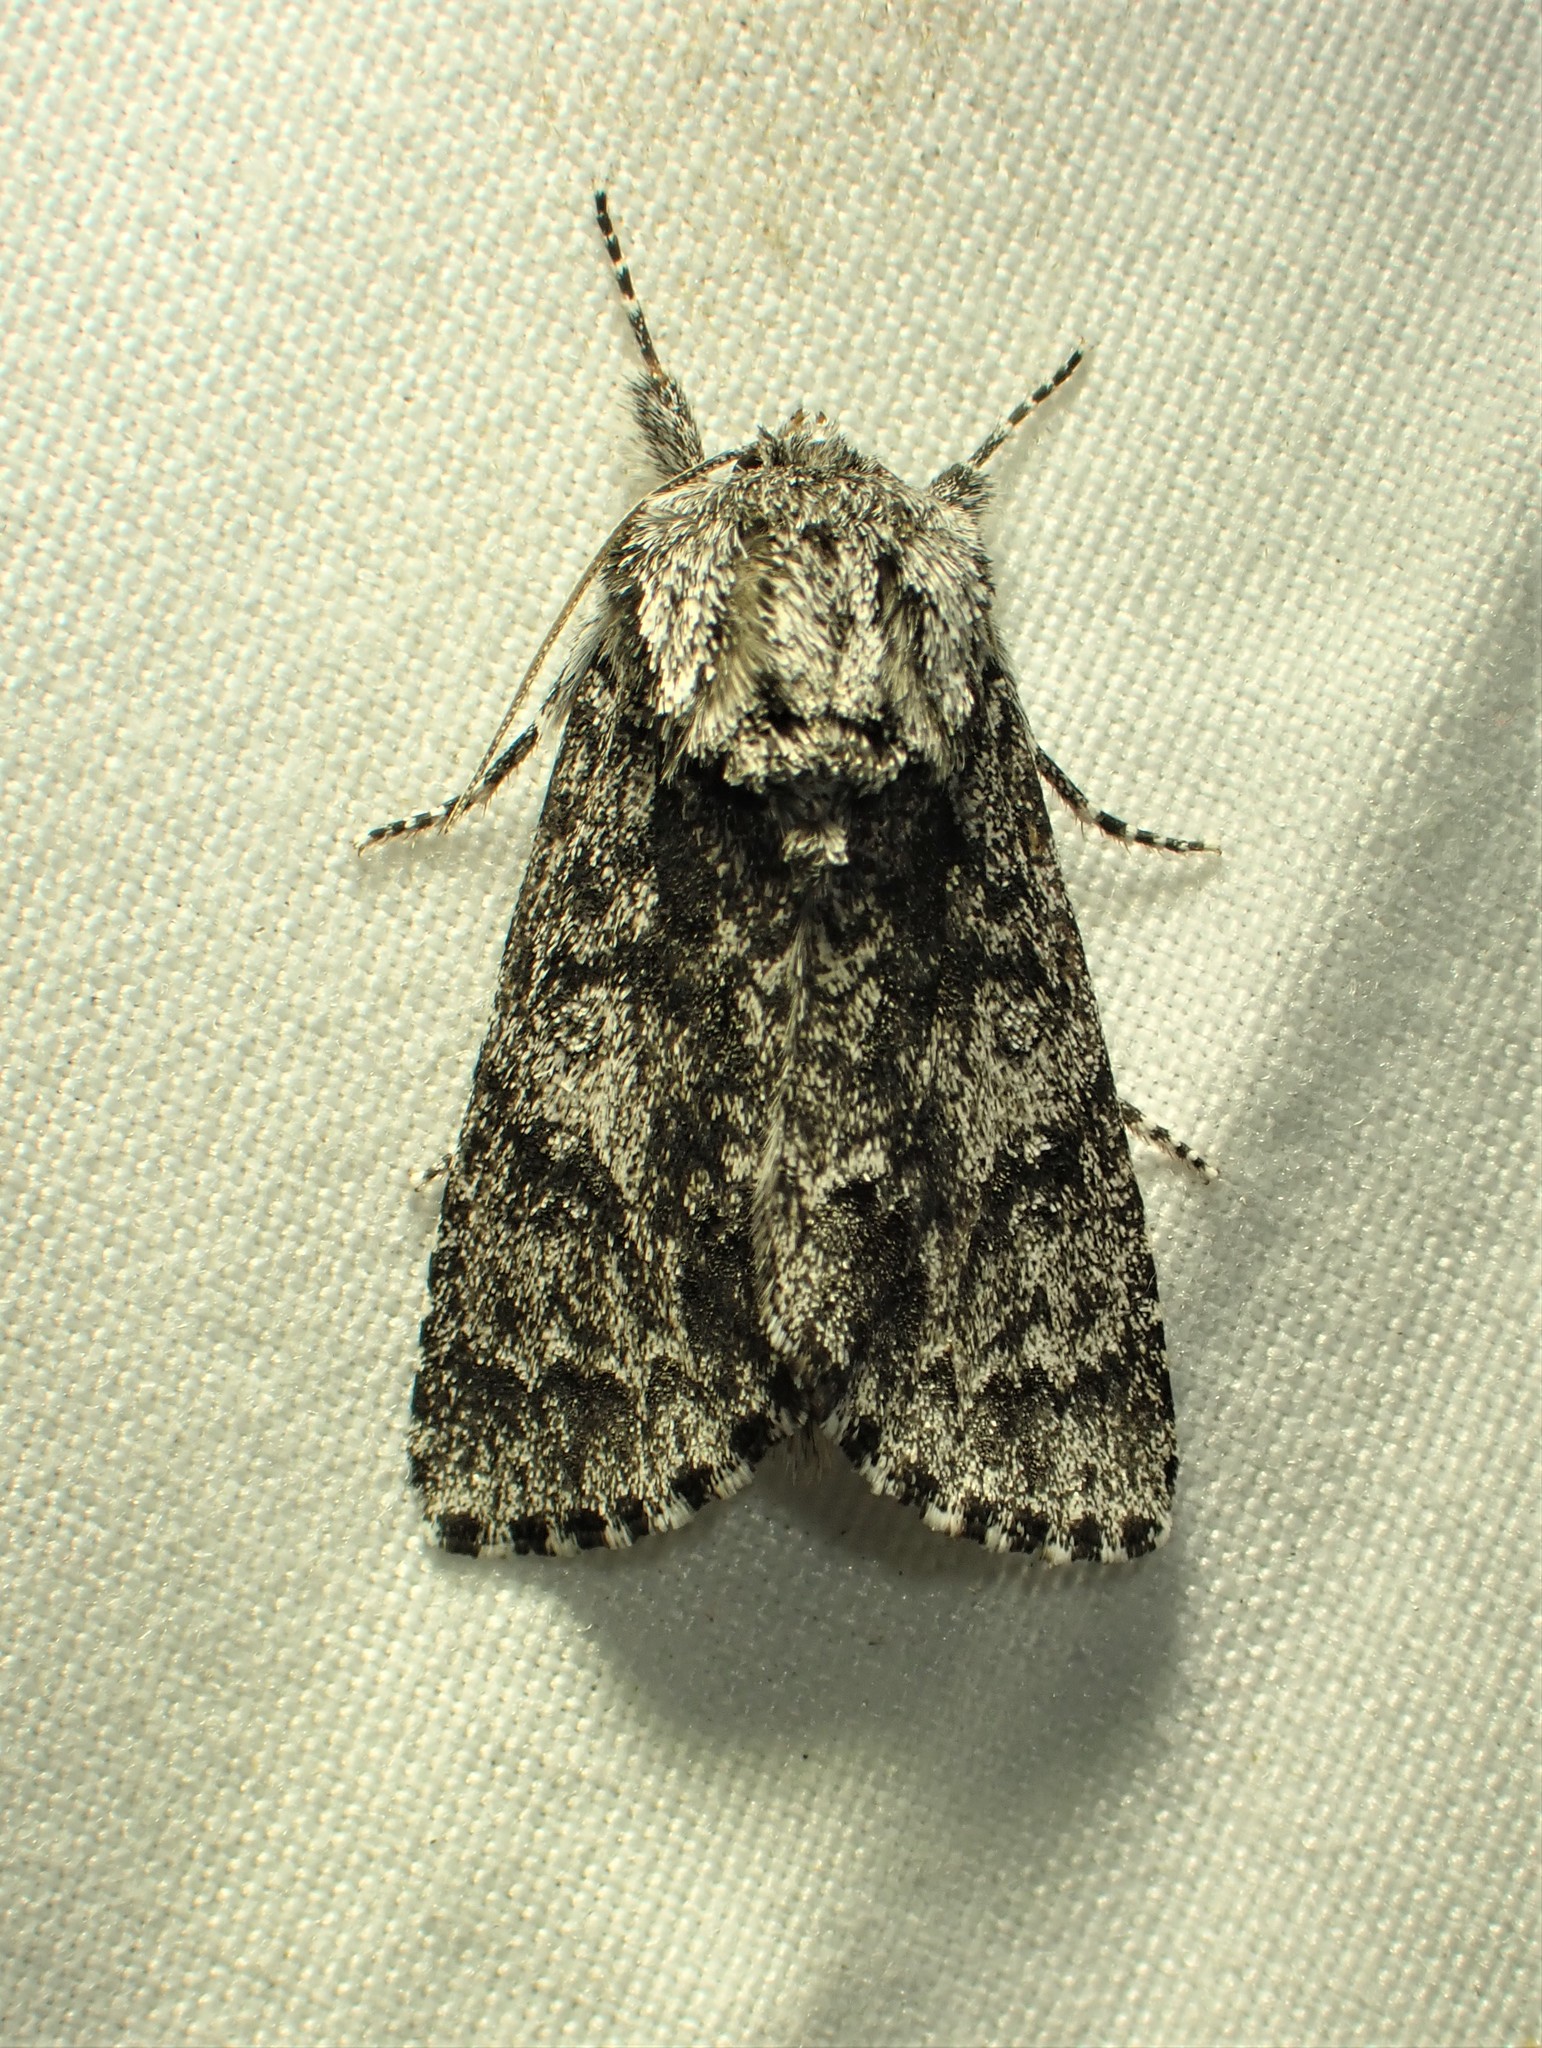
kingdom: Animalia
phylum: Arthropoda
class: Insecta
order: Lepidoptera
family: Noctuidae
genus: Acronicta
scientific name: Acronicta impressa
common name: Impressed dagger
